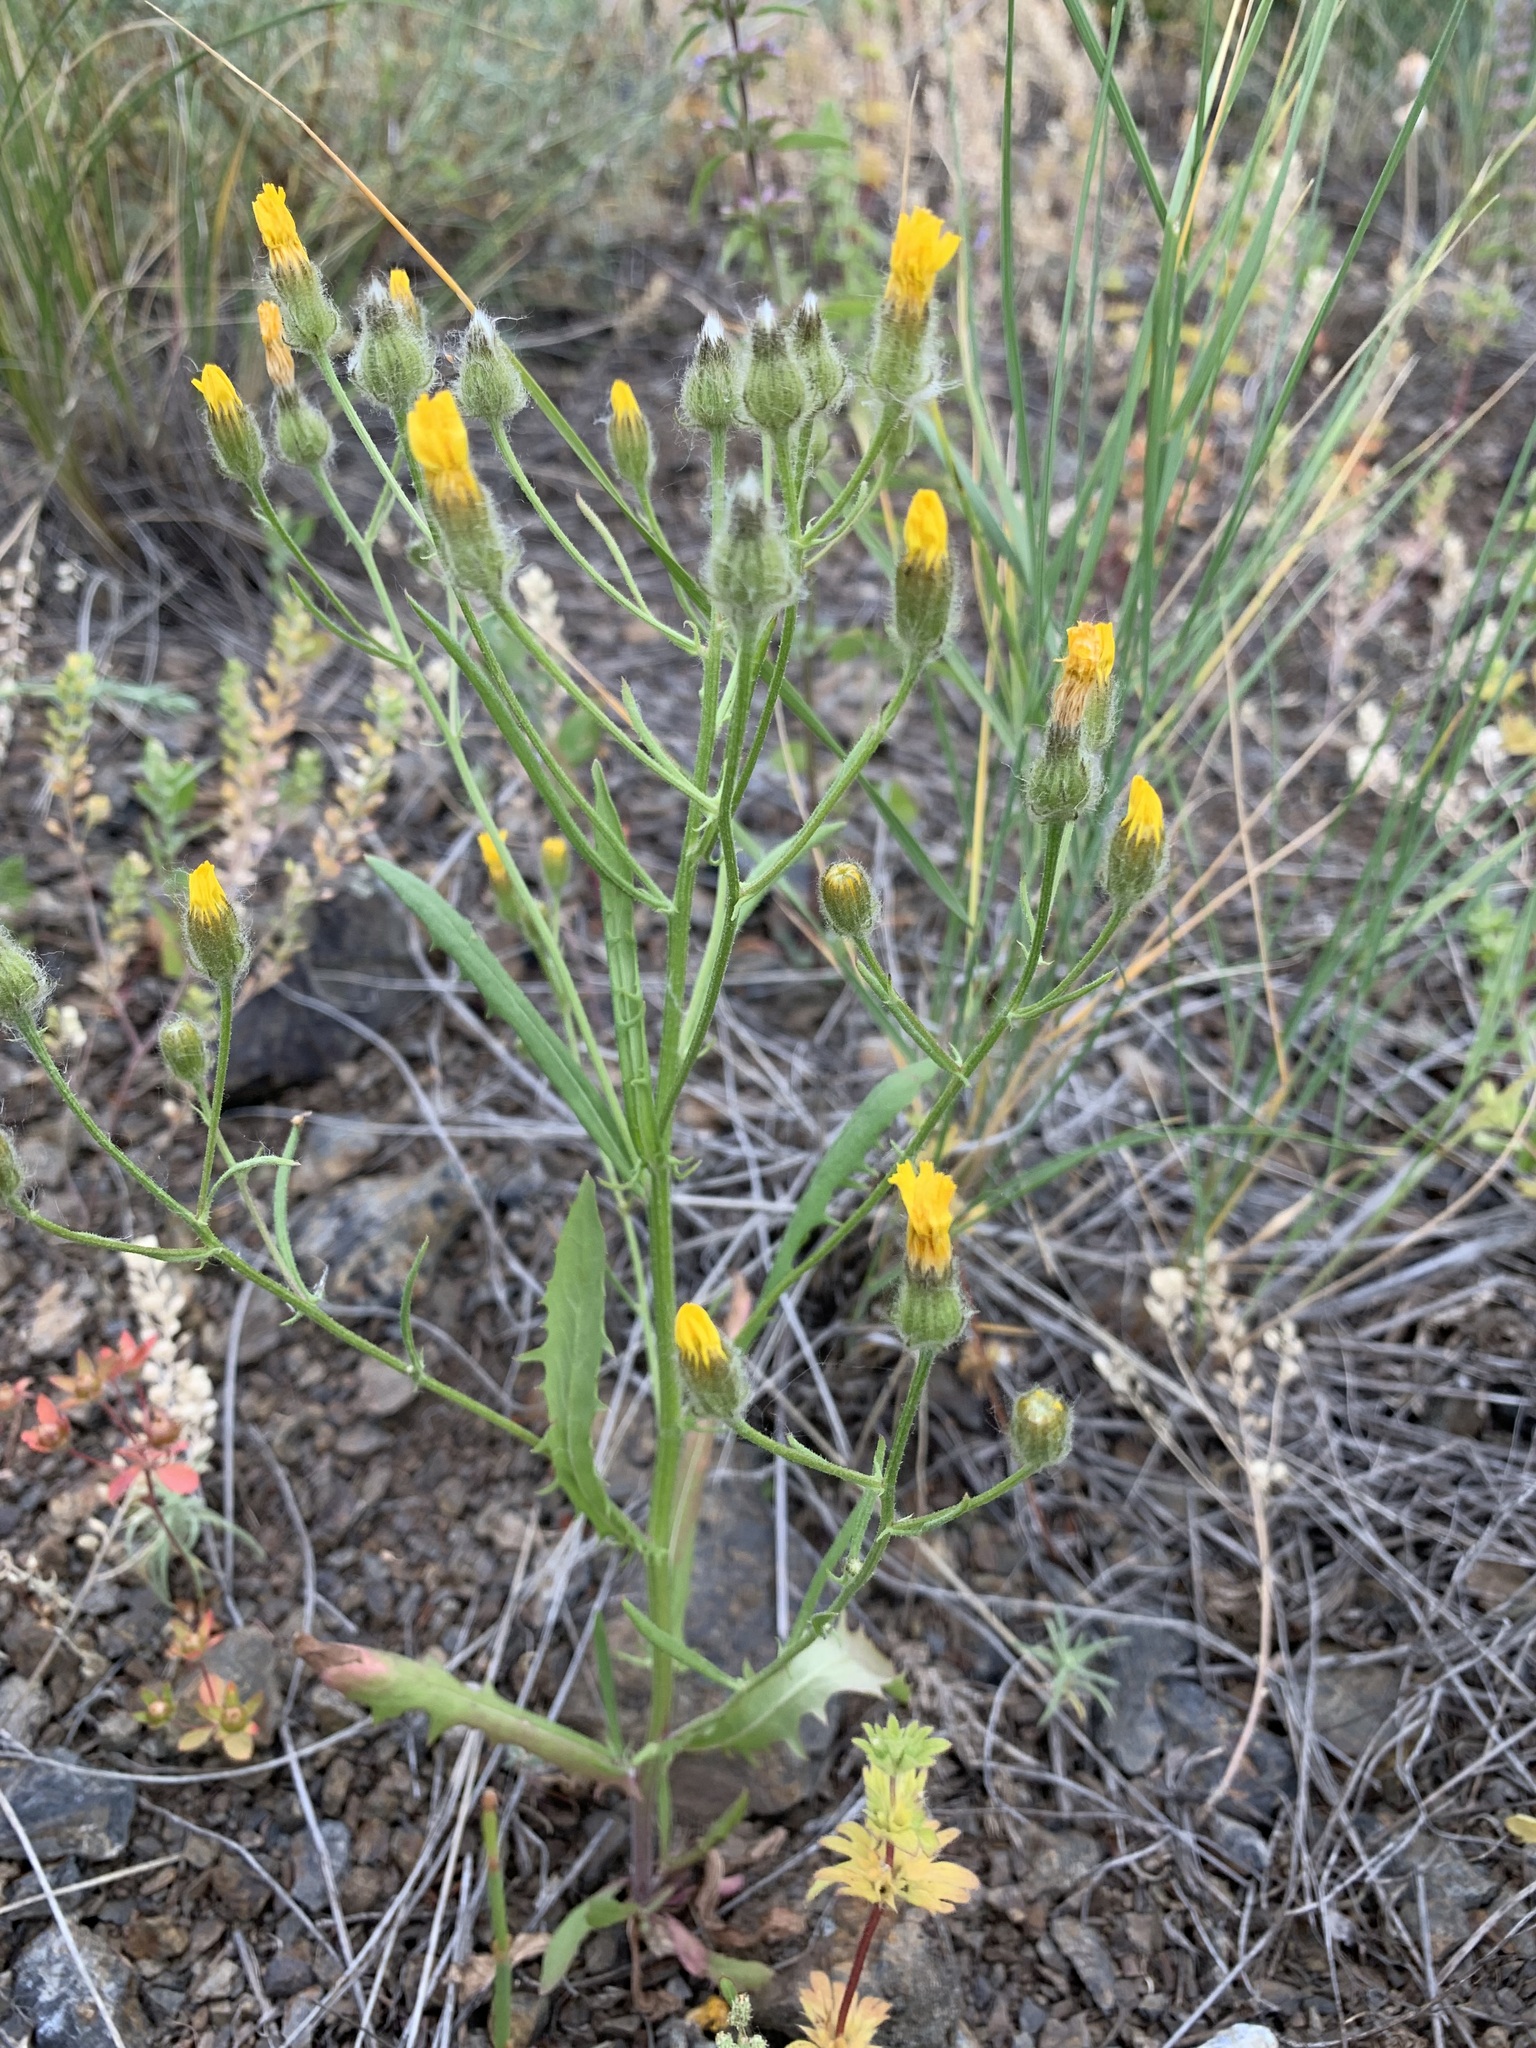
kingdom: Plantae
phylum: Tracheophyta
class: Magnoliopsida
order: Asterales
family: Asteraceae
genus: Crepis
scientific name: Crepis tectorum
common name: Narrow-leaved hawk's-beard
